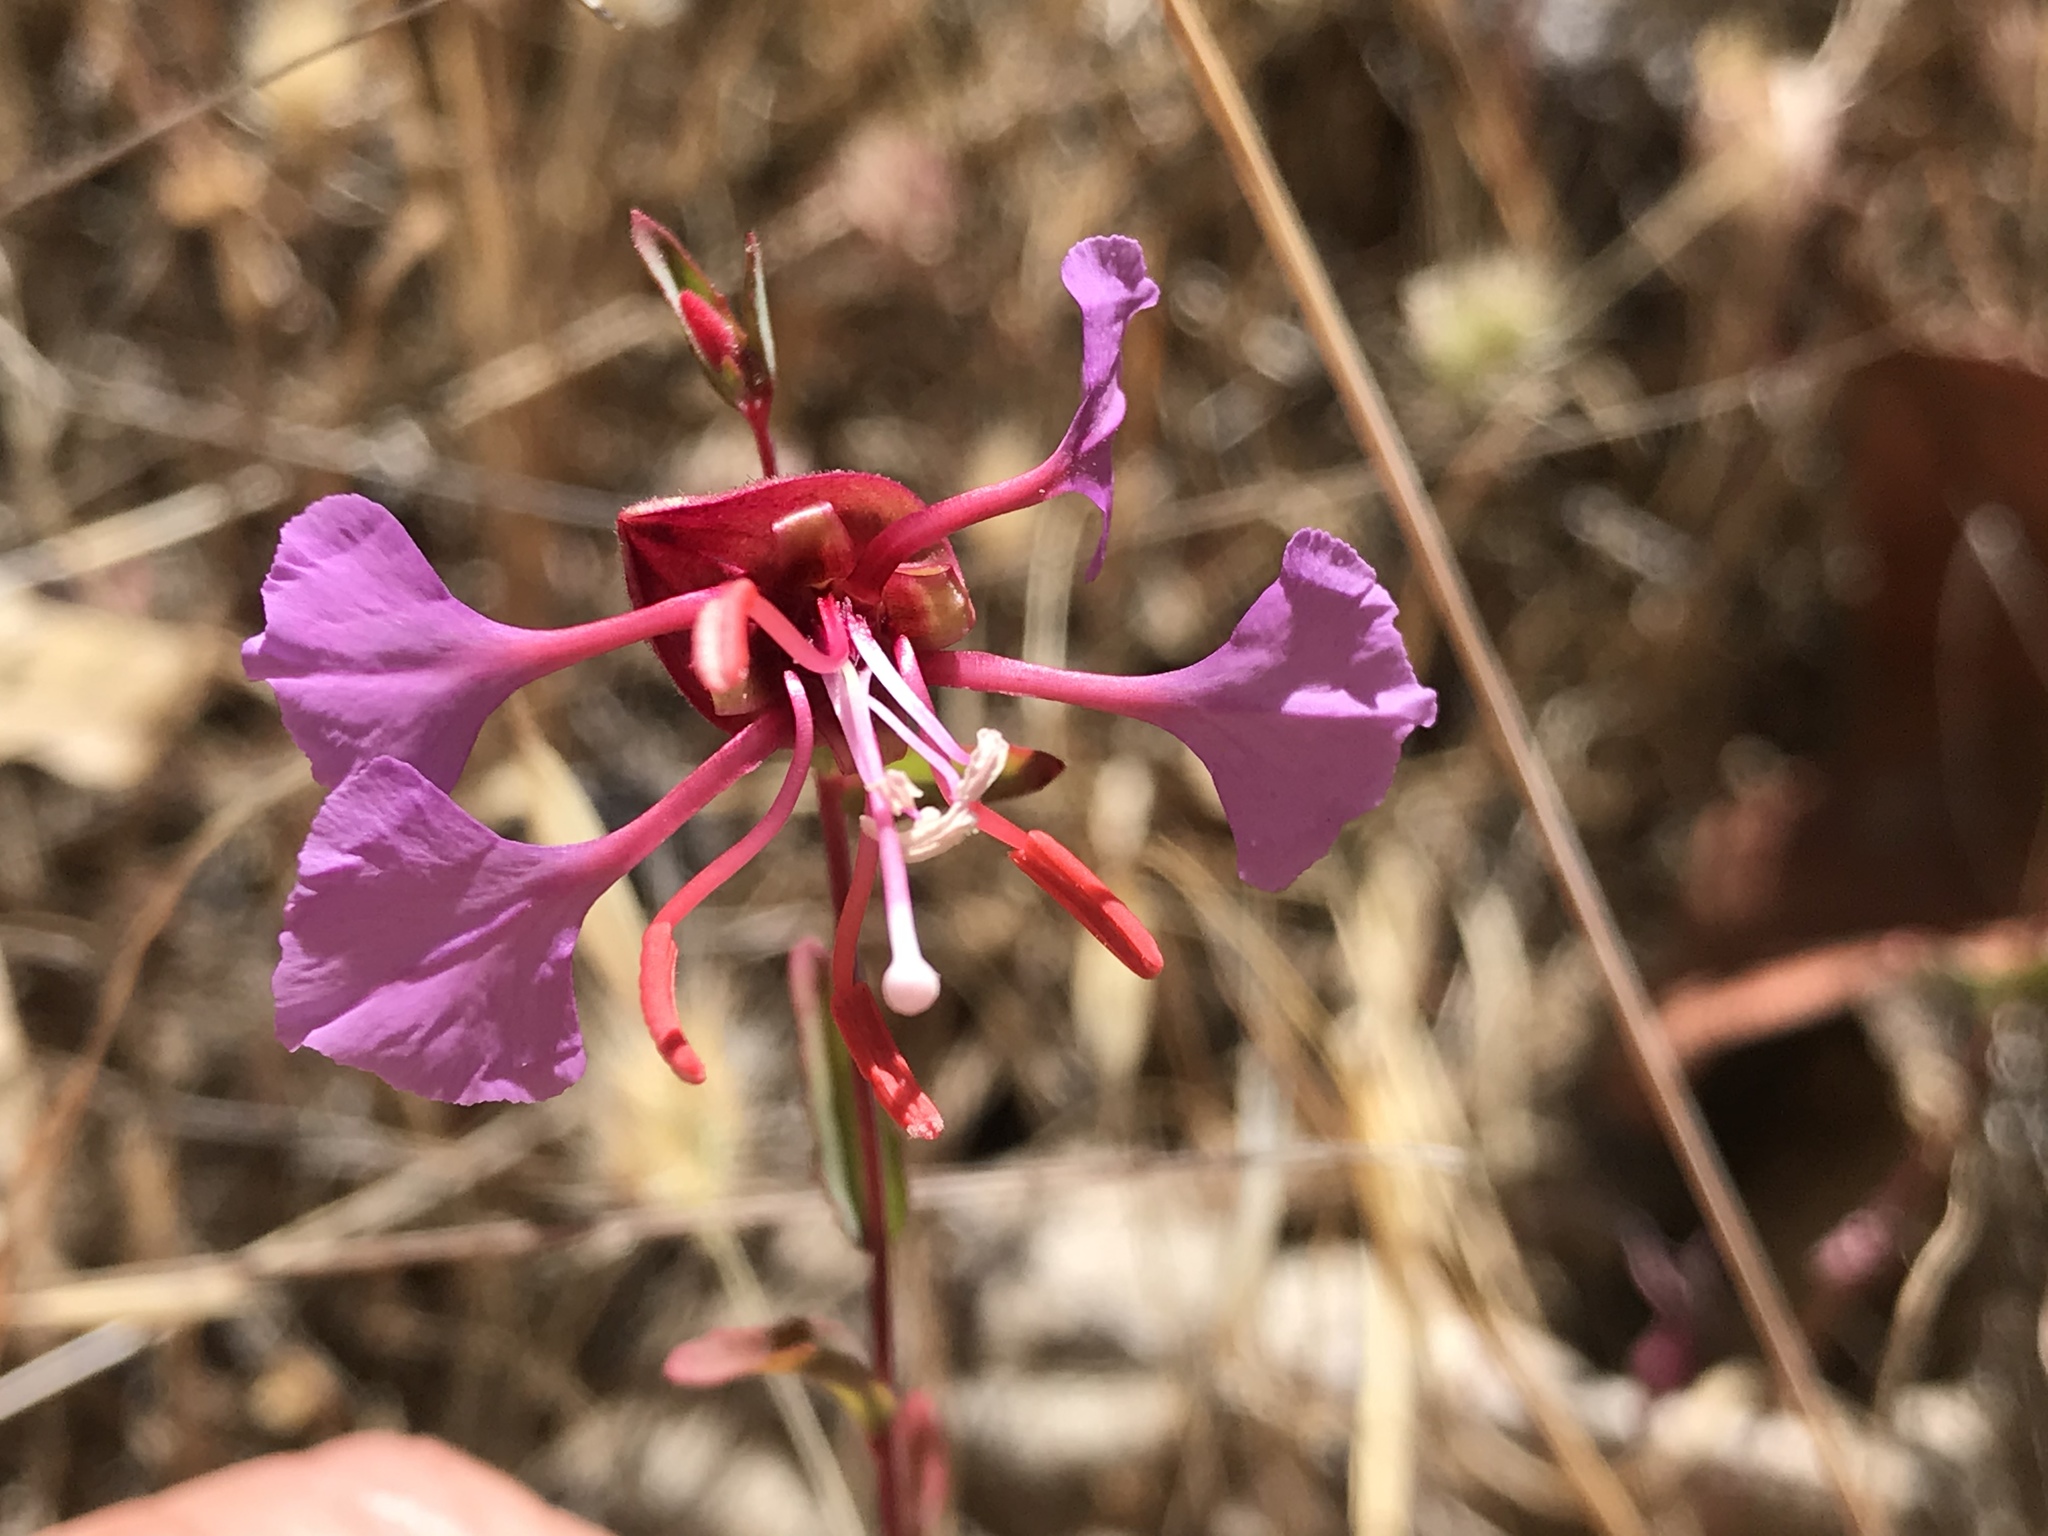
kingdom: Plantae
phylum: Tracheophyta
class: Magnoliopsida
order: Myrtales
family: Onagraceae
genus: Clarkia
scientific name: Clarkia unguiculata
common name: Clarkia
